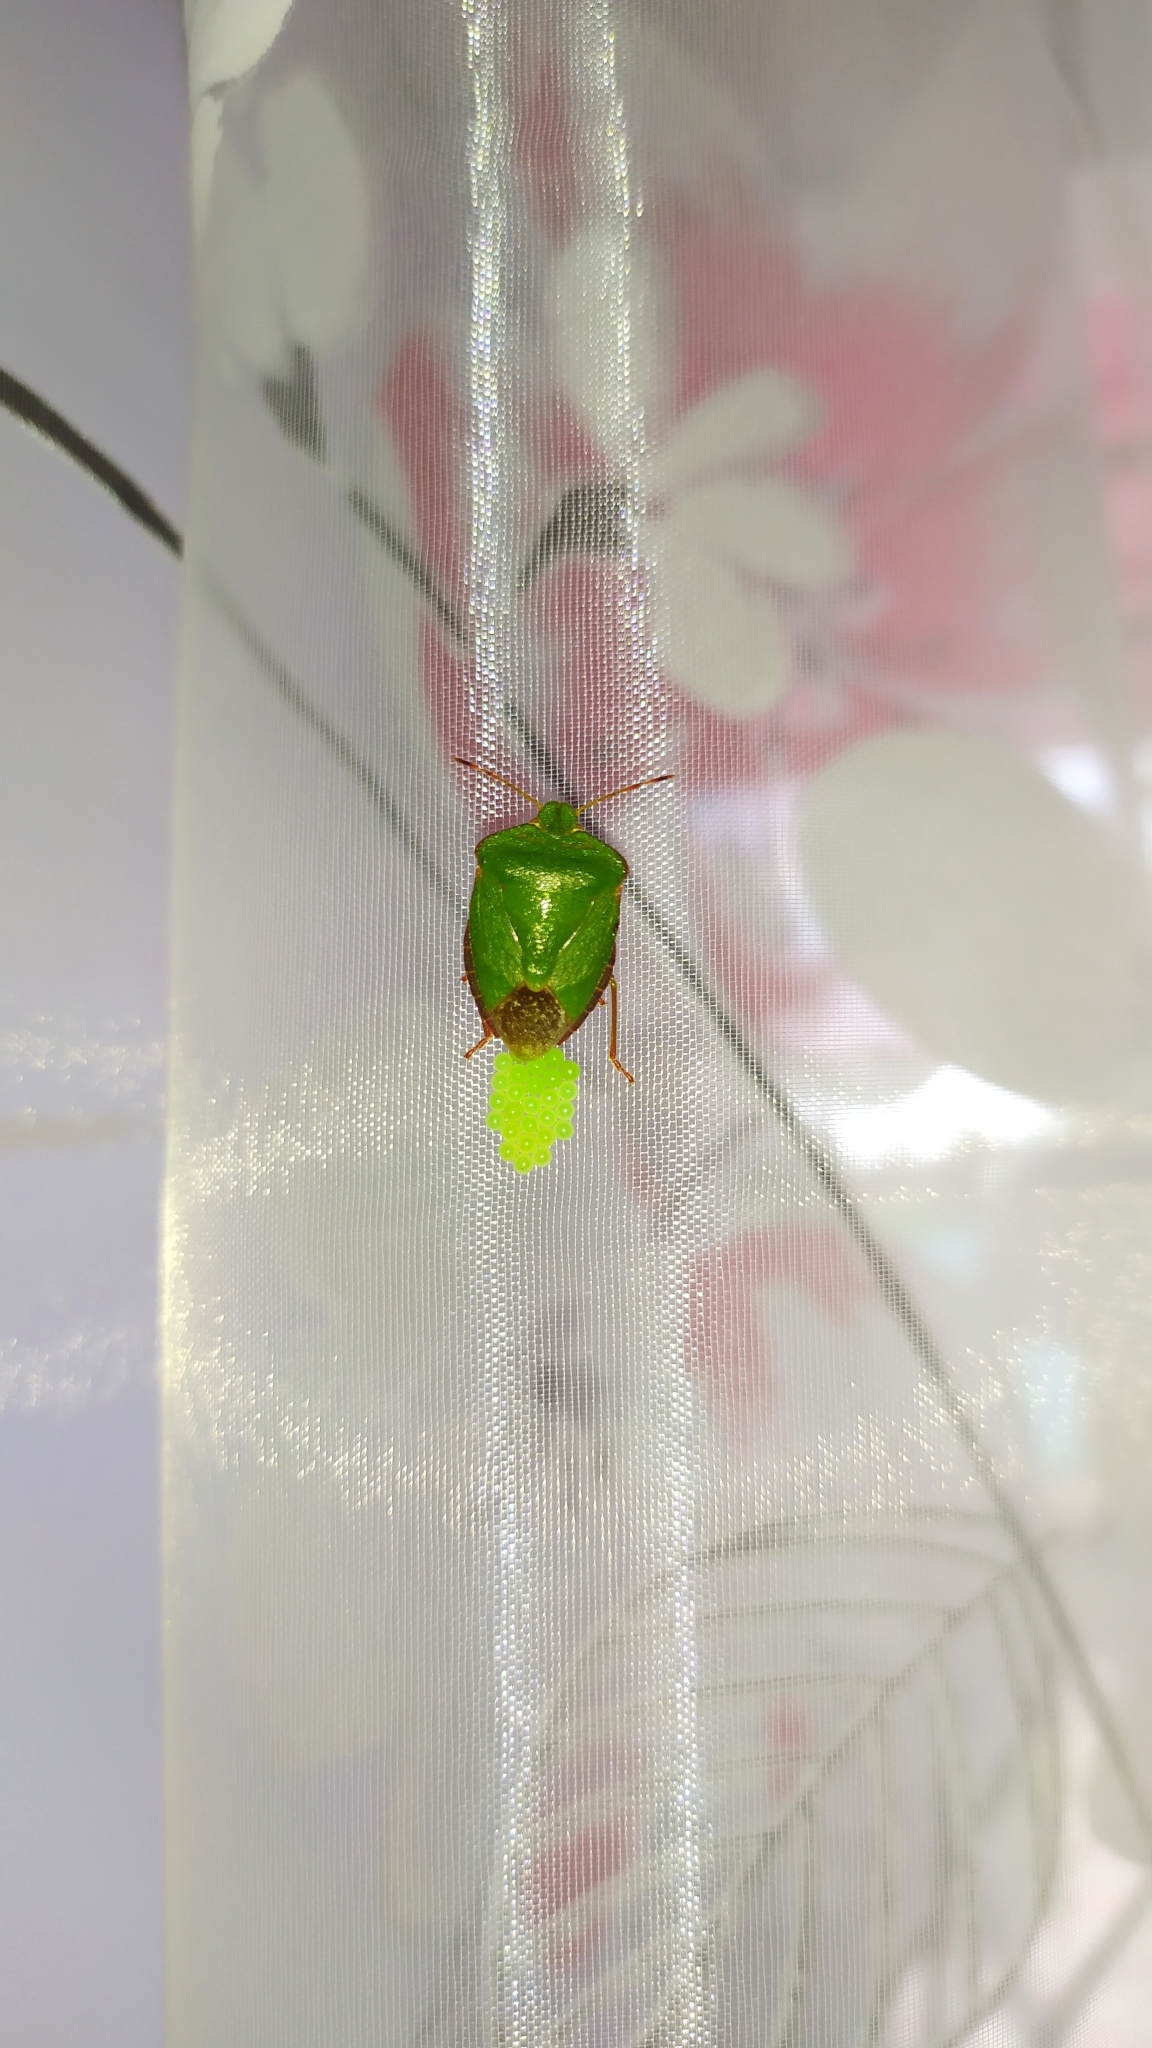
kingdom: Animalia
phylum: Arthropoda
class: Insecta
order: Hemiptera
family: Pentatomidae
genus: Palomena
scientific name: Palomena prasina
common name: Green shieldbug
